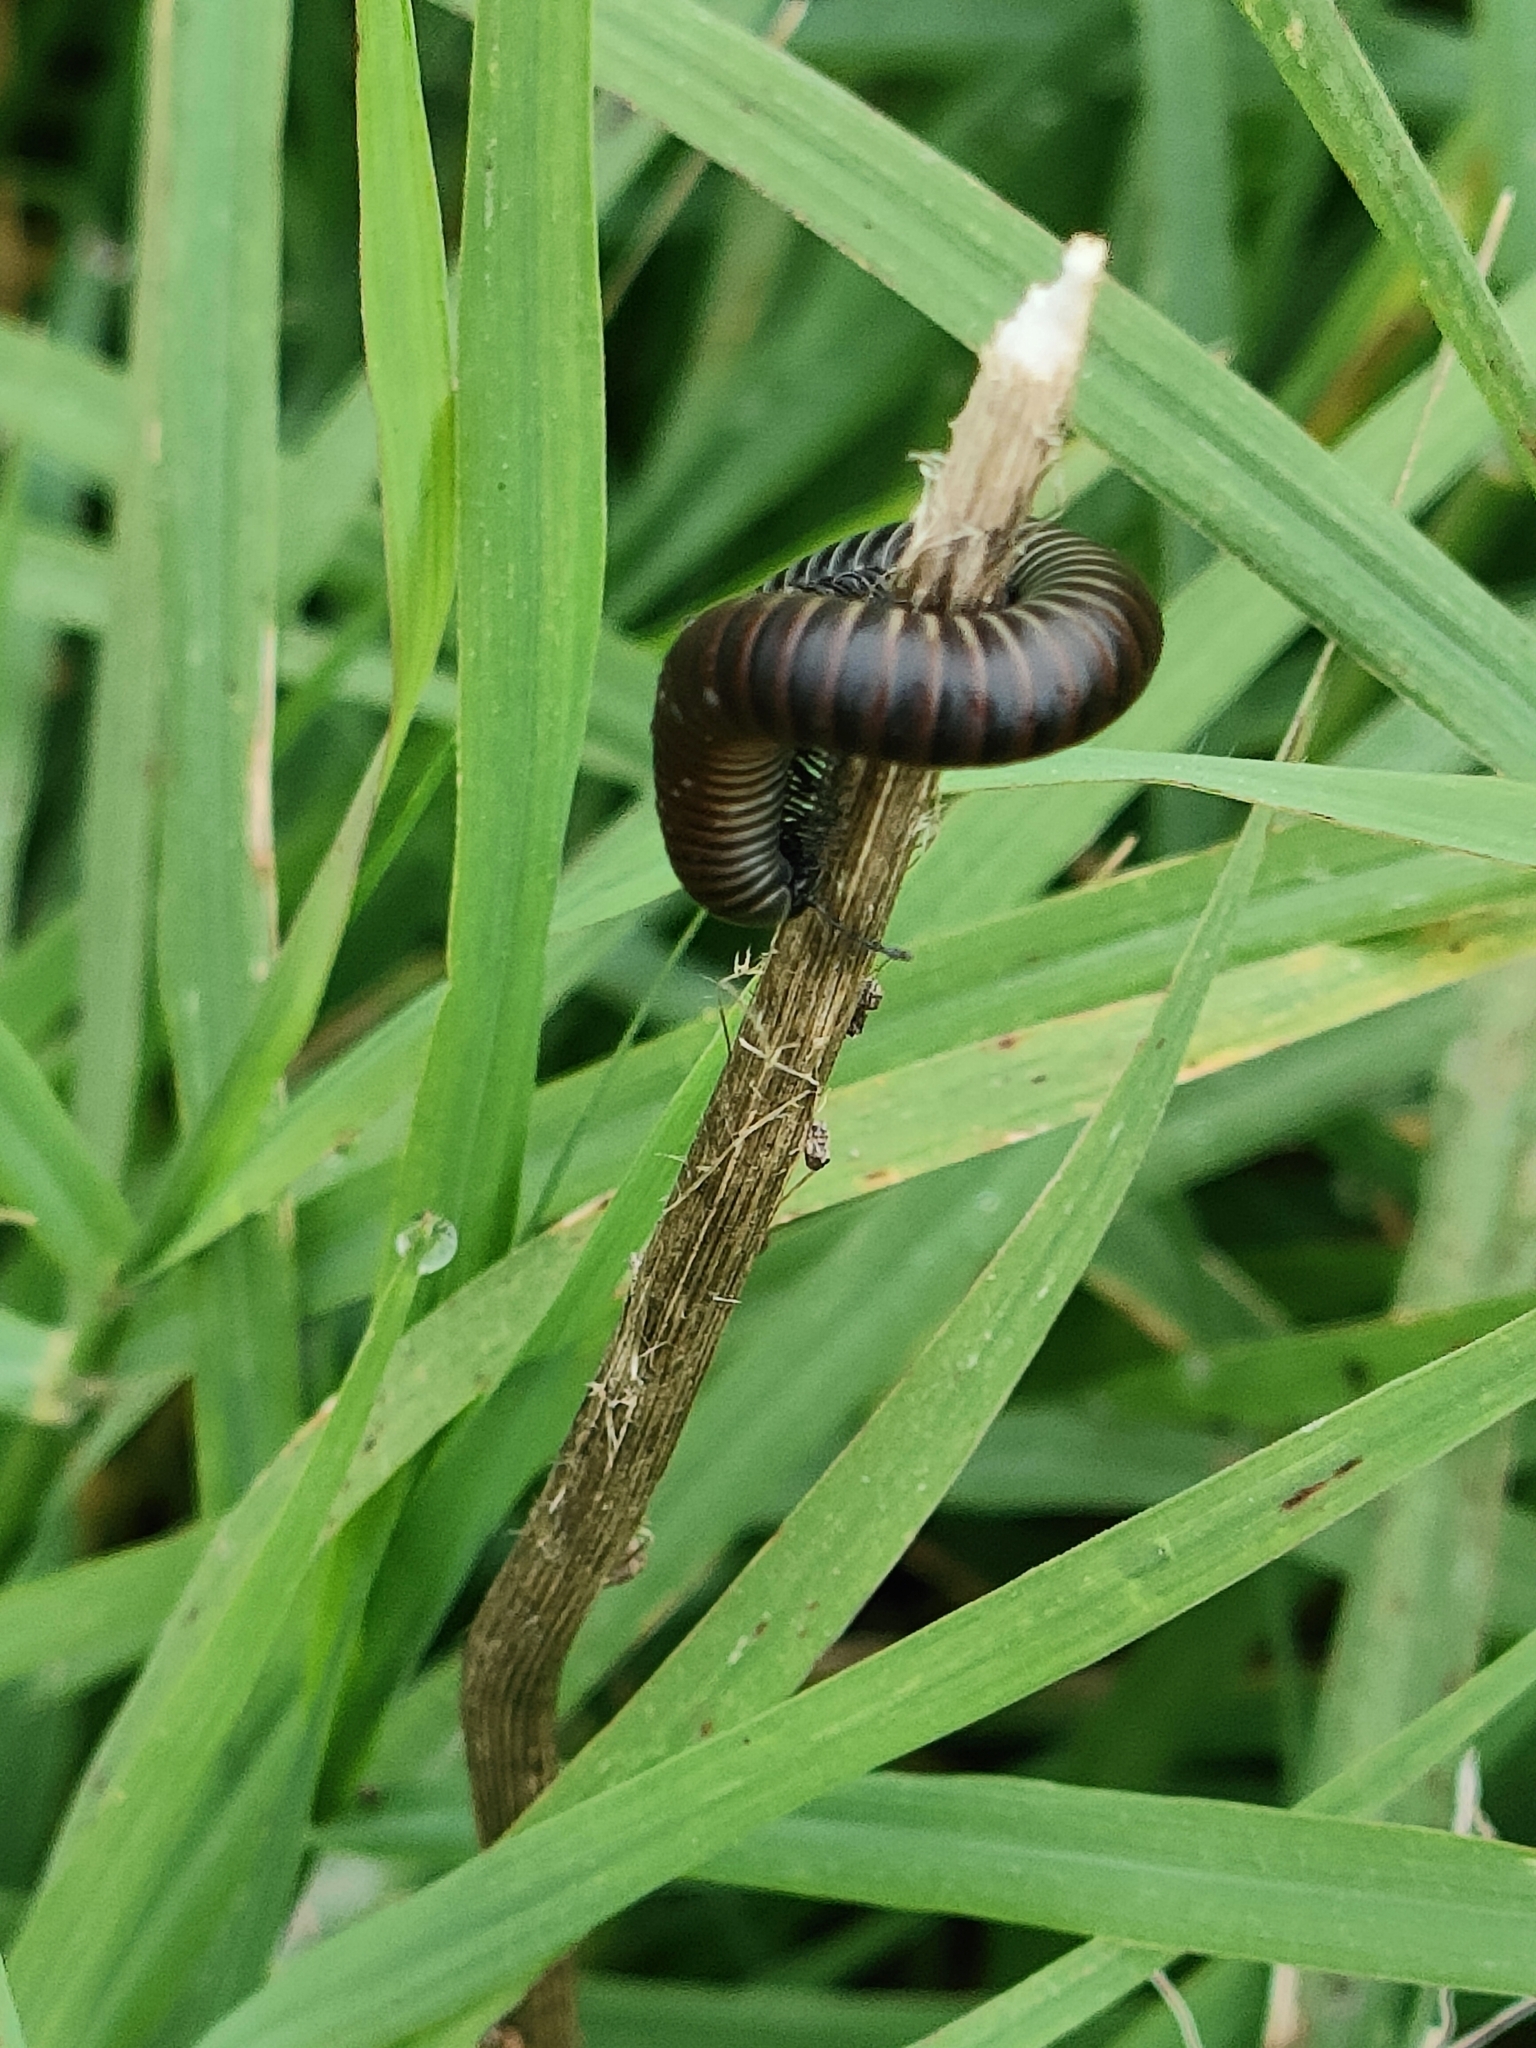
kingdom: Animalia
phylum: Arthropoda
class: Diplopoda
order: Julida
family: Julidae
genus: Ommatoiulus
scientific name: Ommatoiulus rutilans
